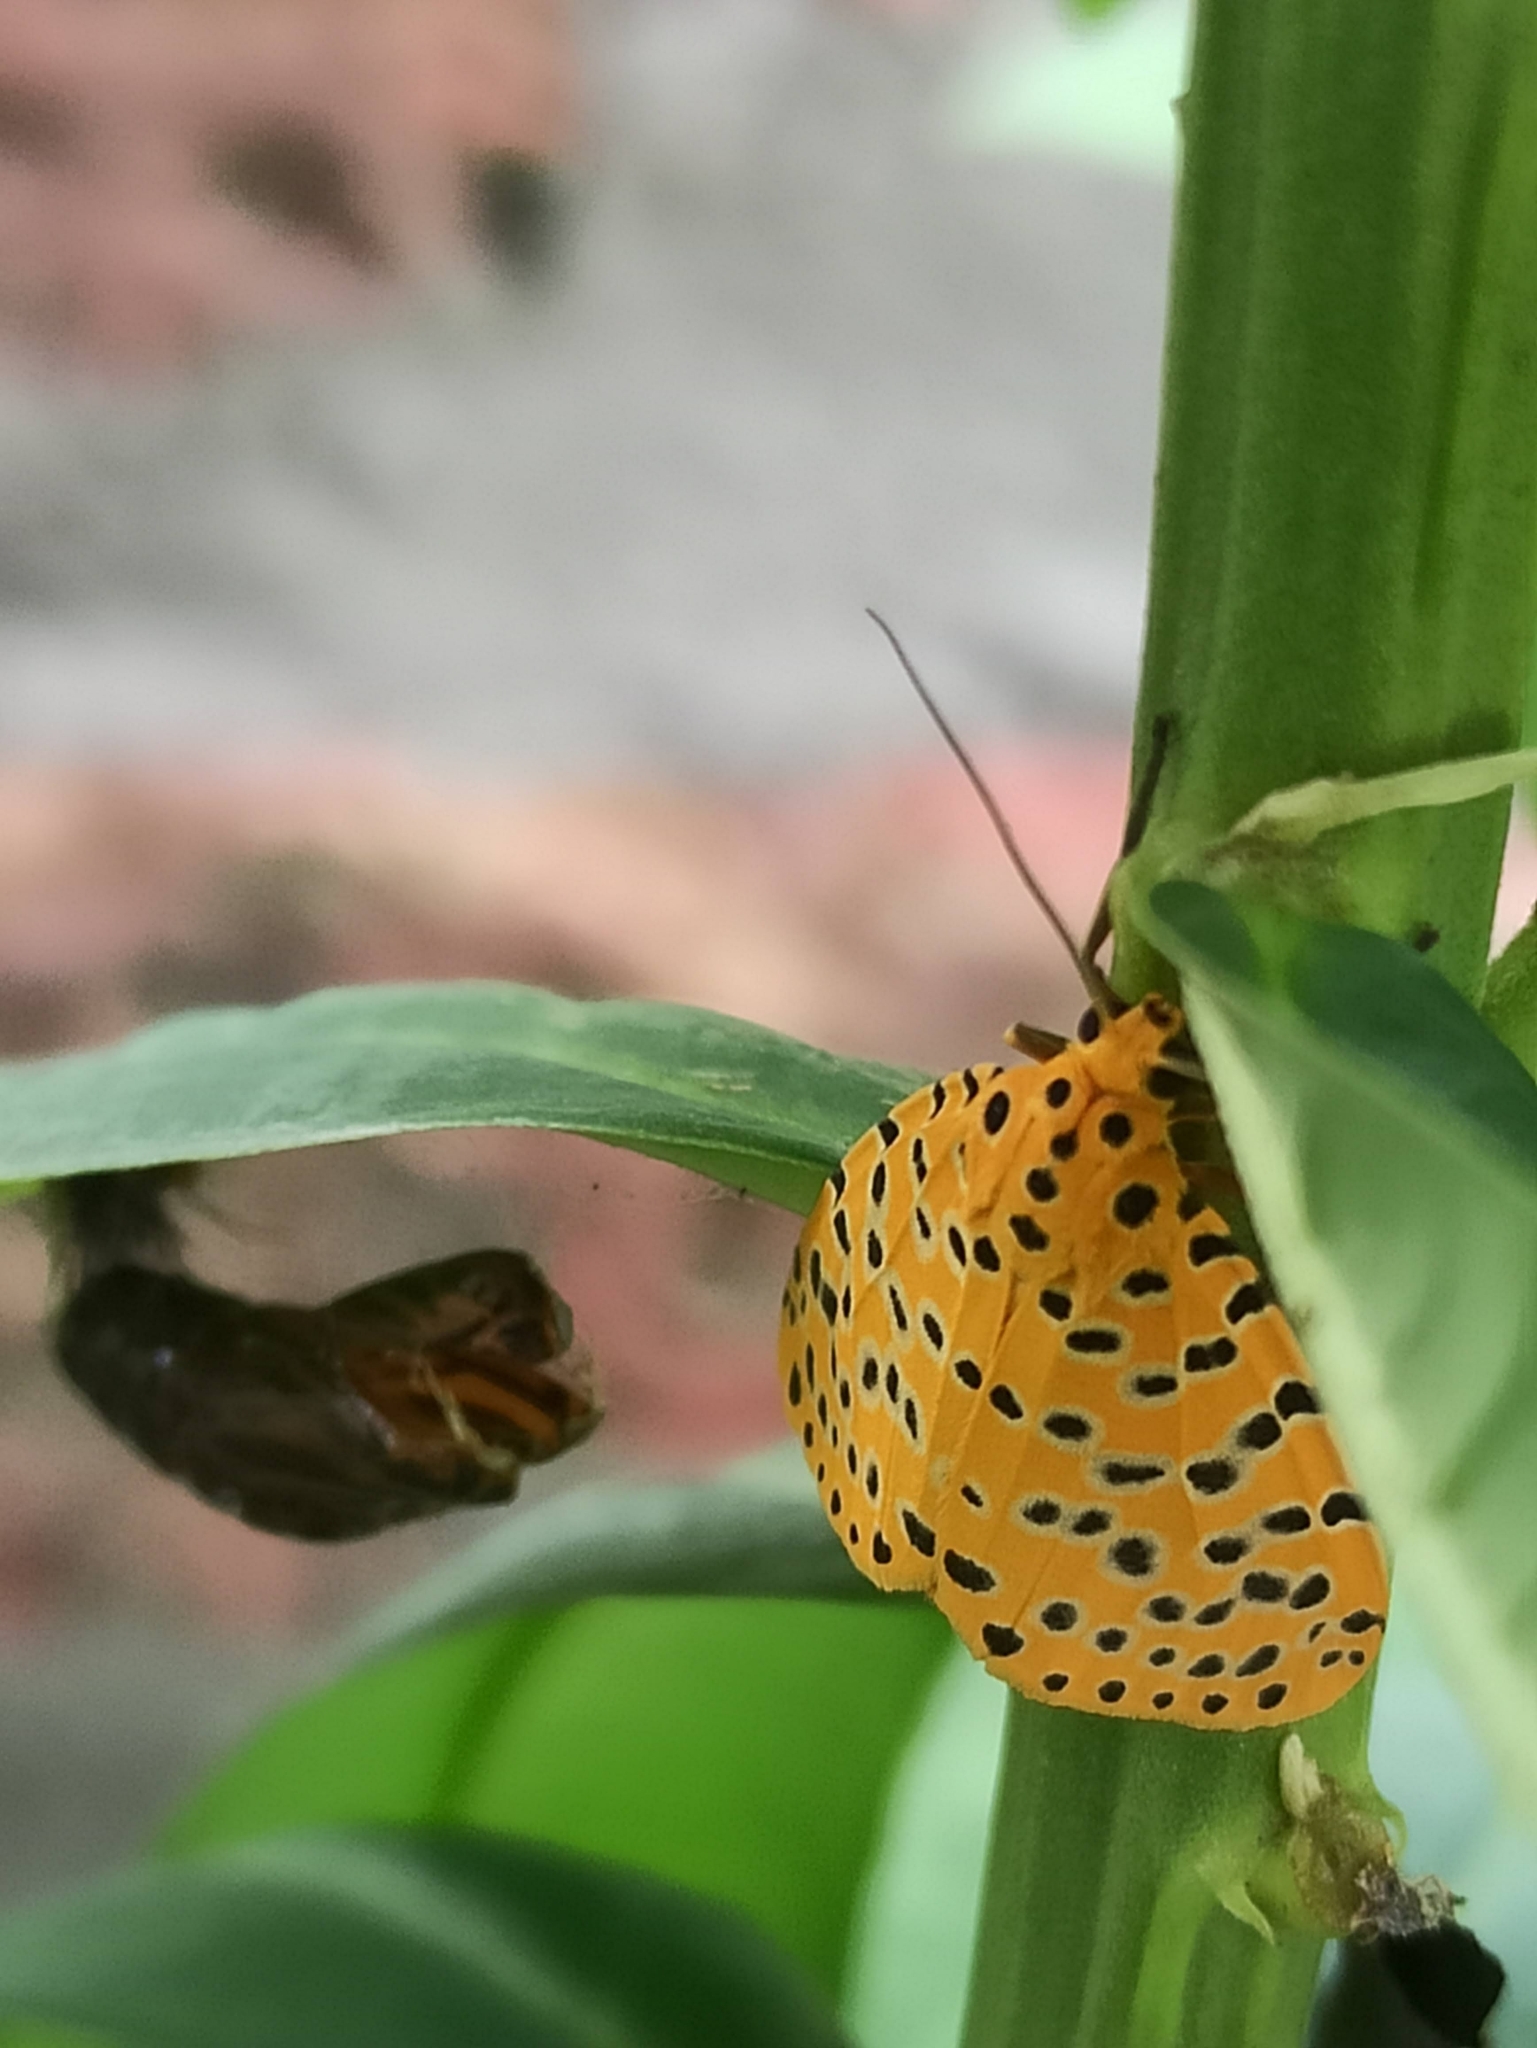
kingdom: Animalia
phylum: Arthropoda
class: Insecta
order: Lepidoptera
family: Erebidae
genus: Argina
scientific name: Argina astrea
